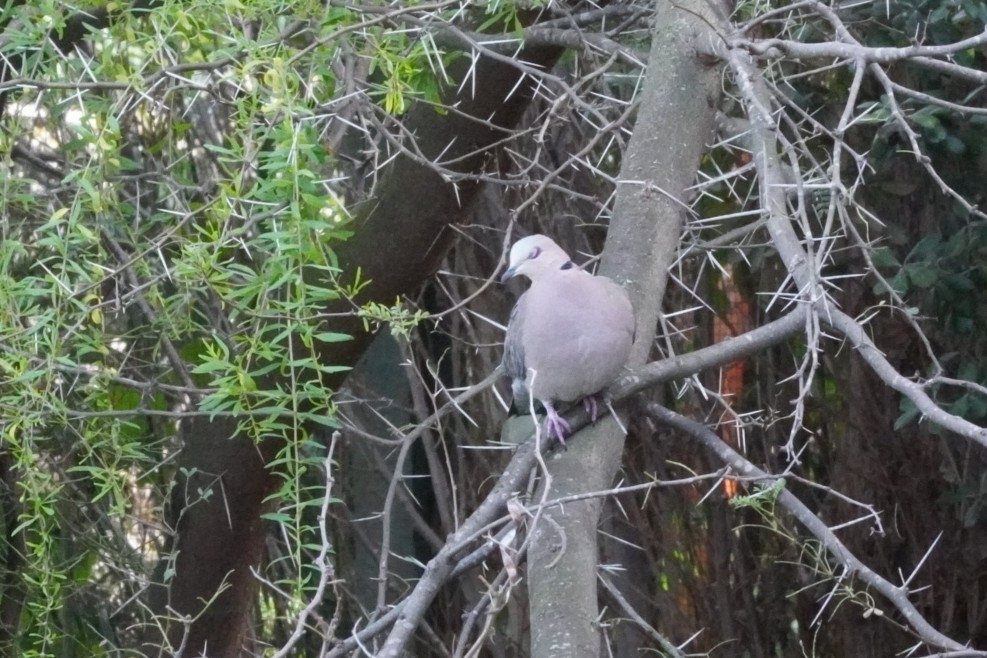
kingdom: Animalia
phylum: Chordata
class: Aves
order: Columbiformes
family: Columbidae
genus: Streptopelia
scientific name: Streptopelia semitorquata
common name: Red-eyed dove
